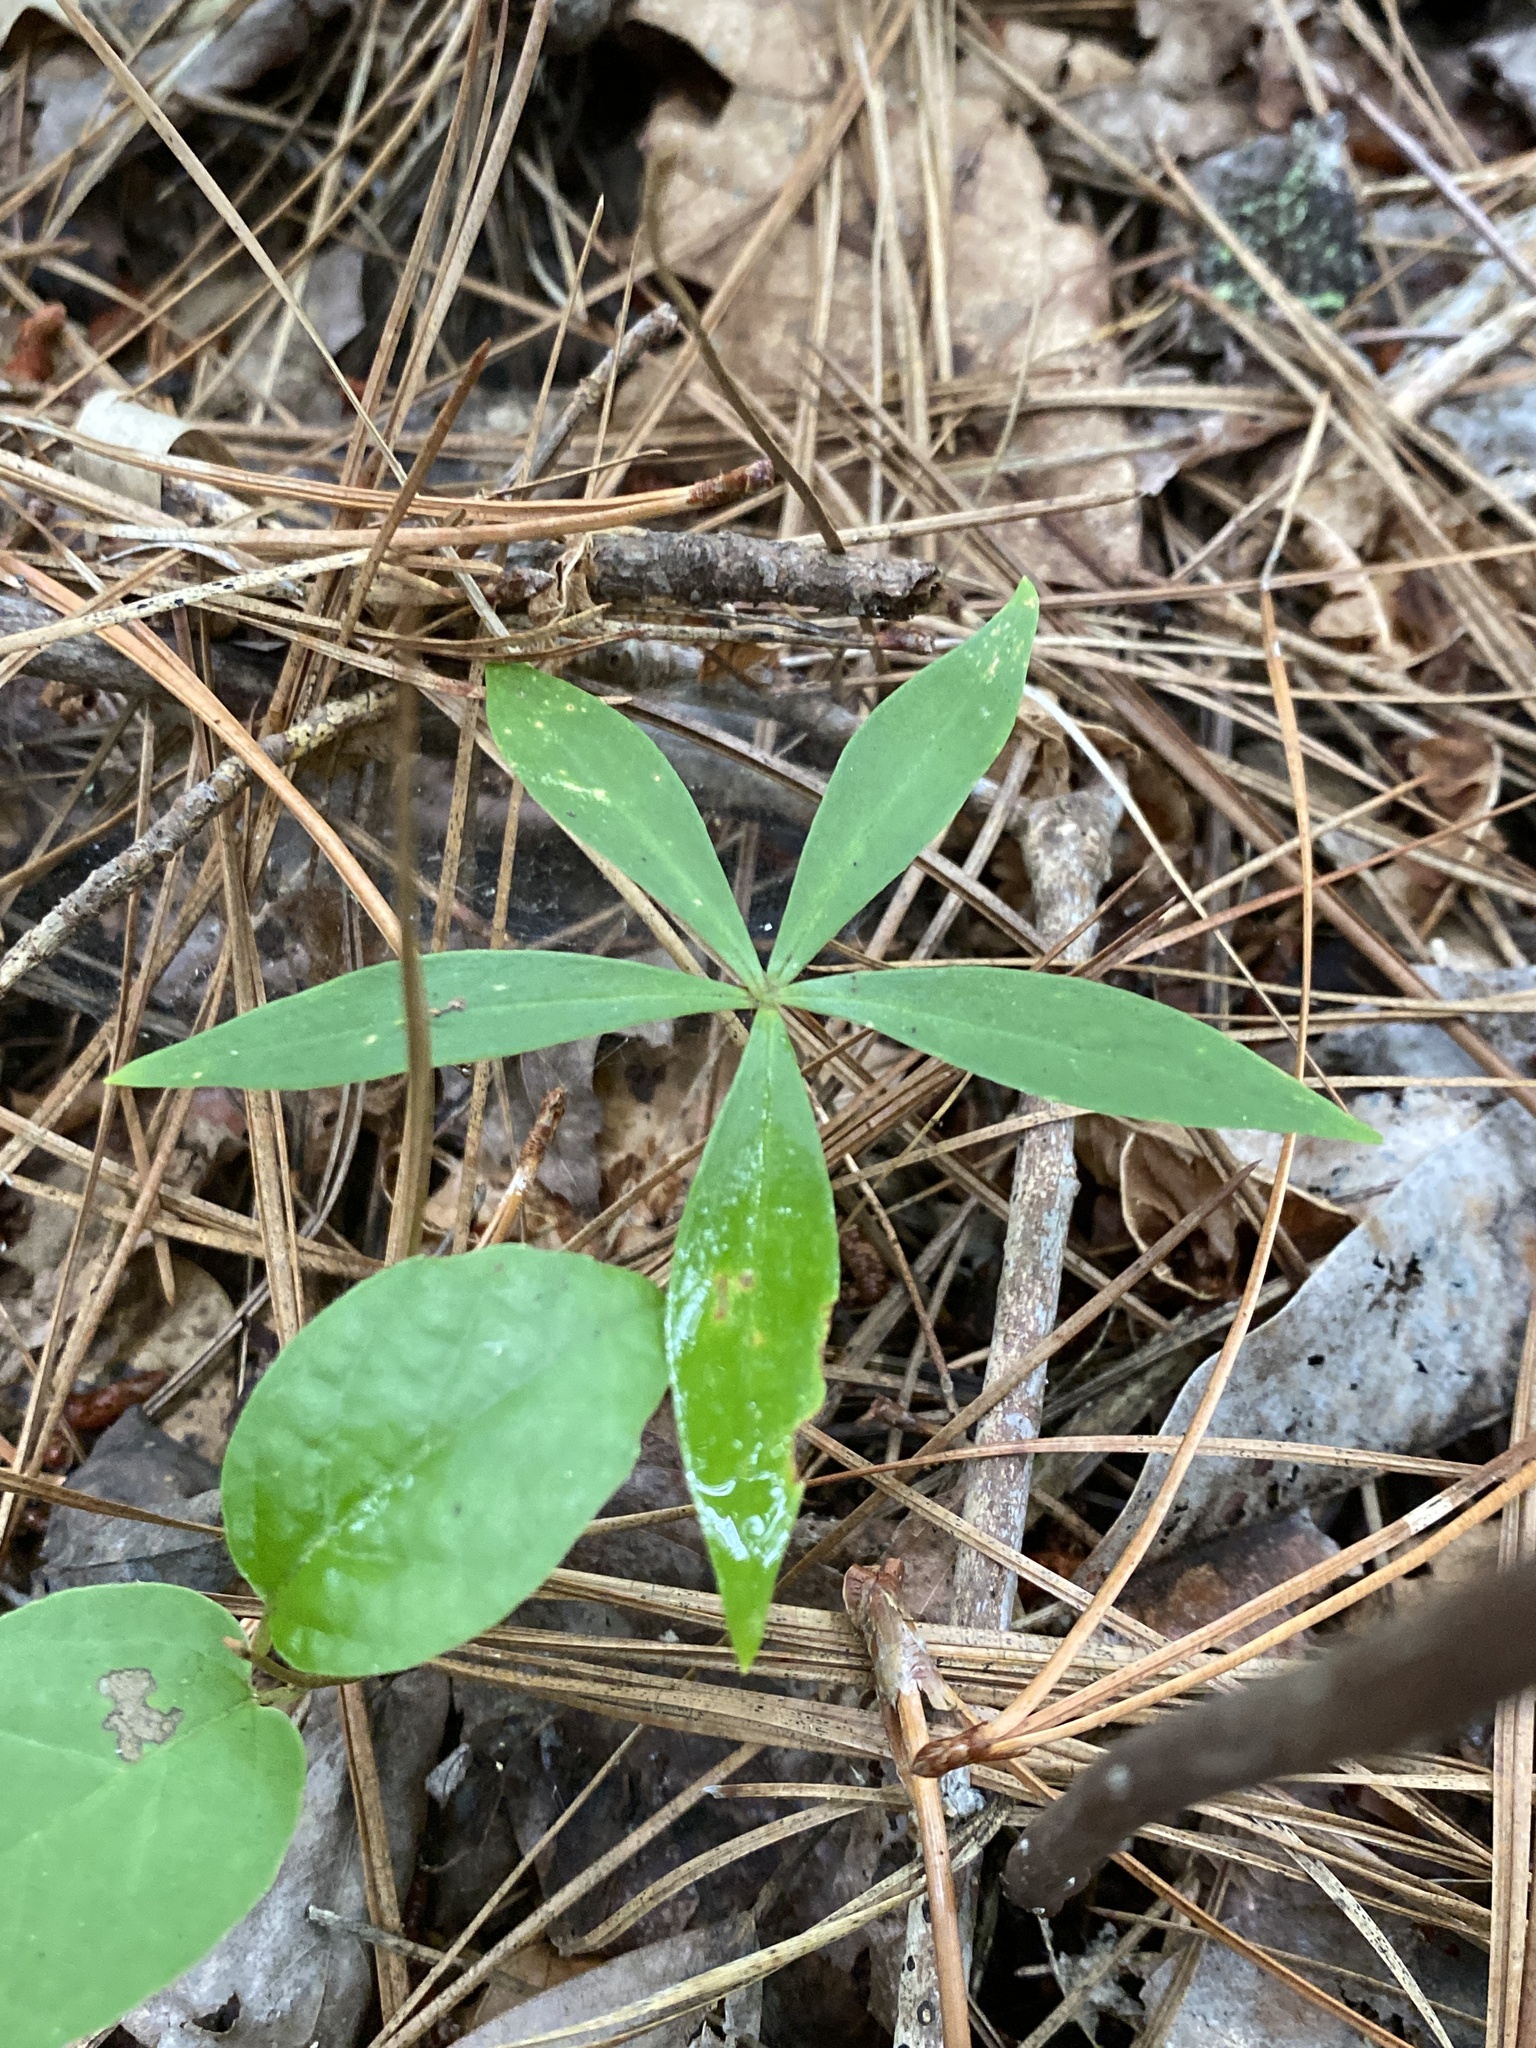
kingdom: Plantae
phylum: Tracheophyta
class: Liliopsida
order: Liliales
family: Liliaceae
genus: Medeola
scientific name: Medeola virginiana
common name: Indian cucumber-root
